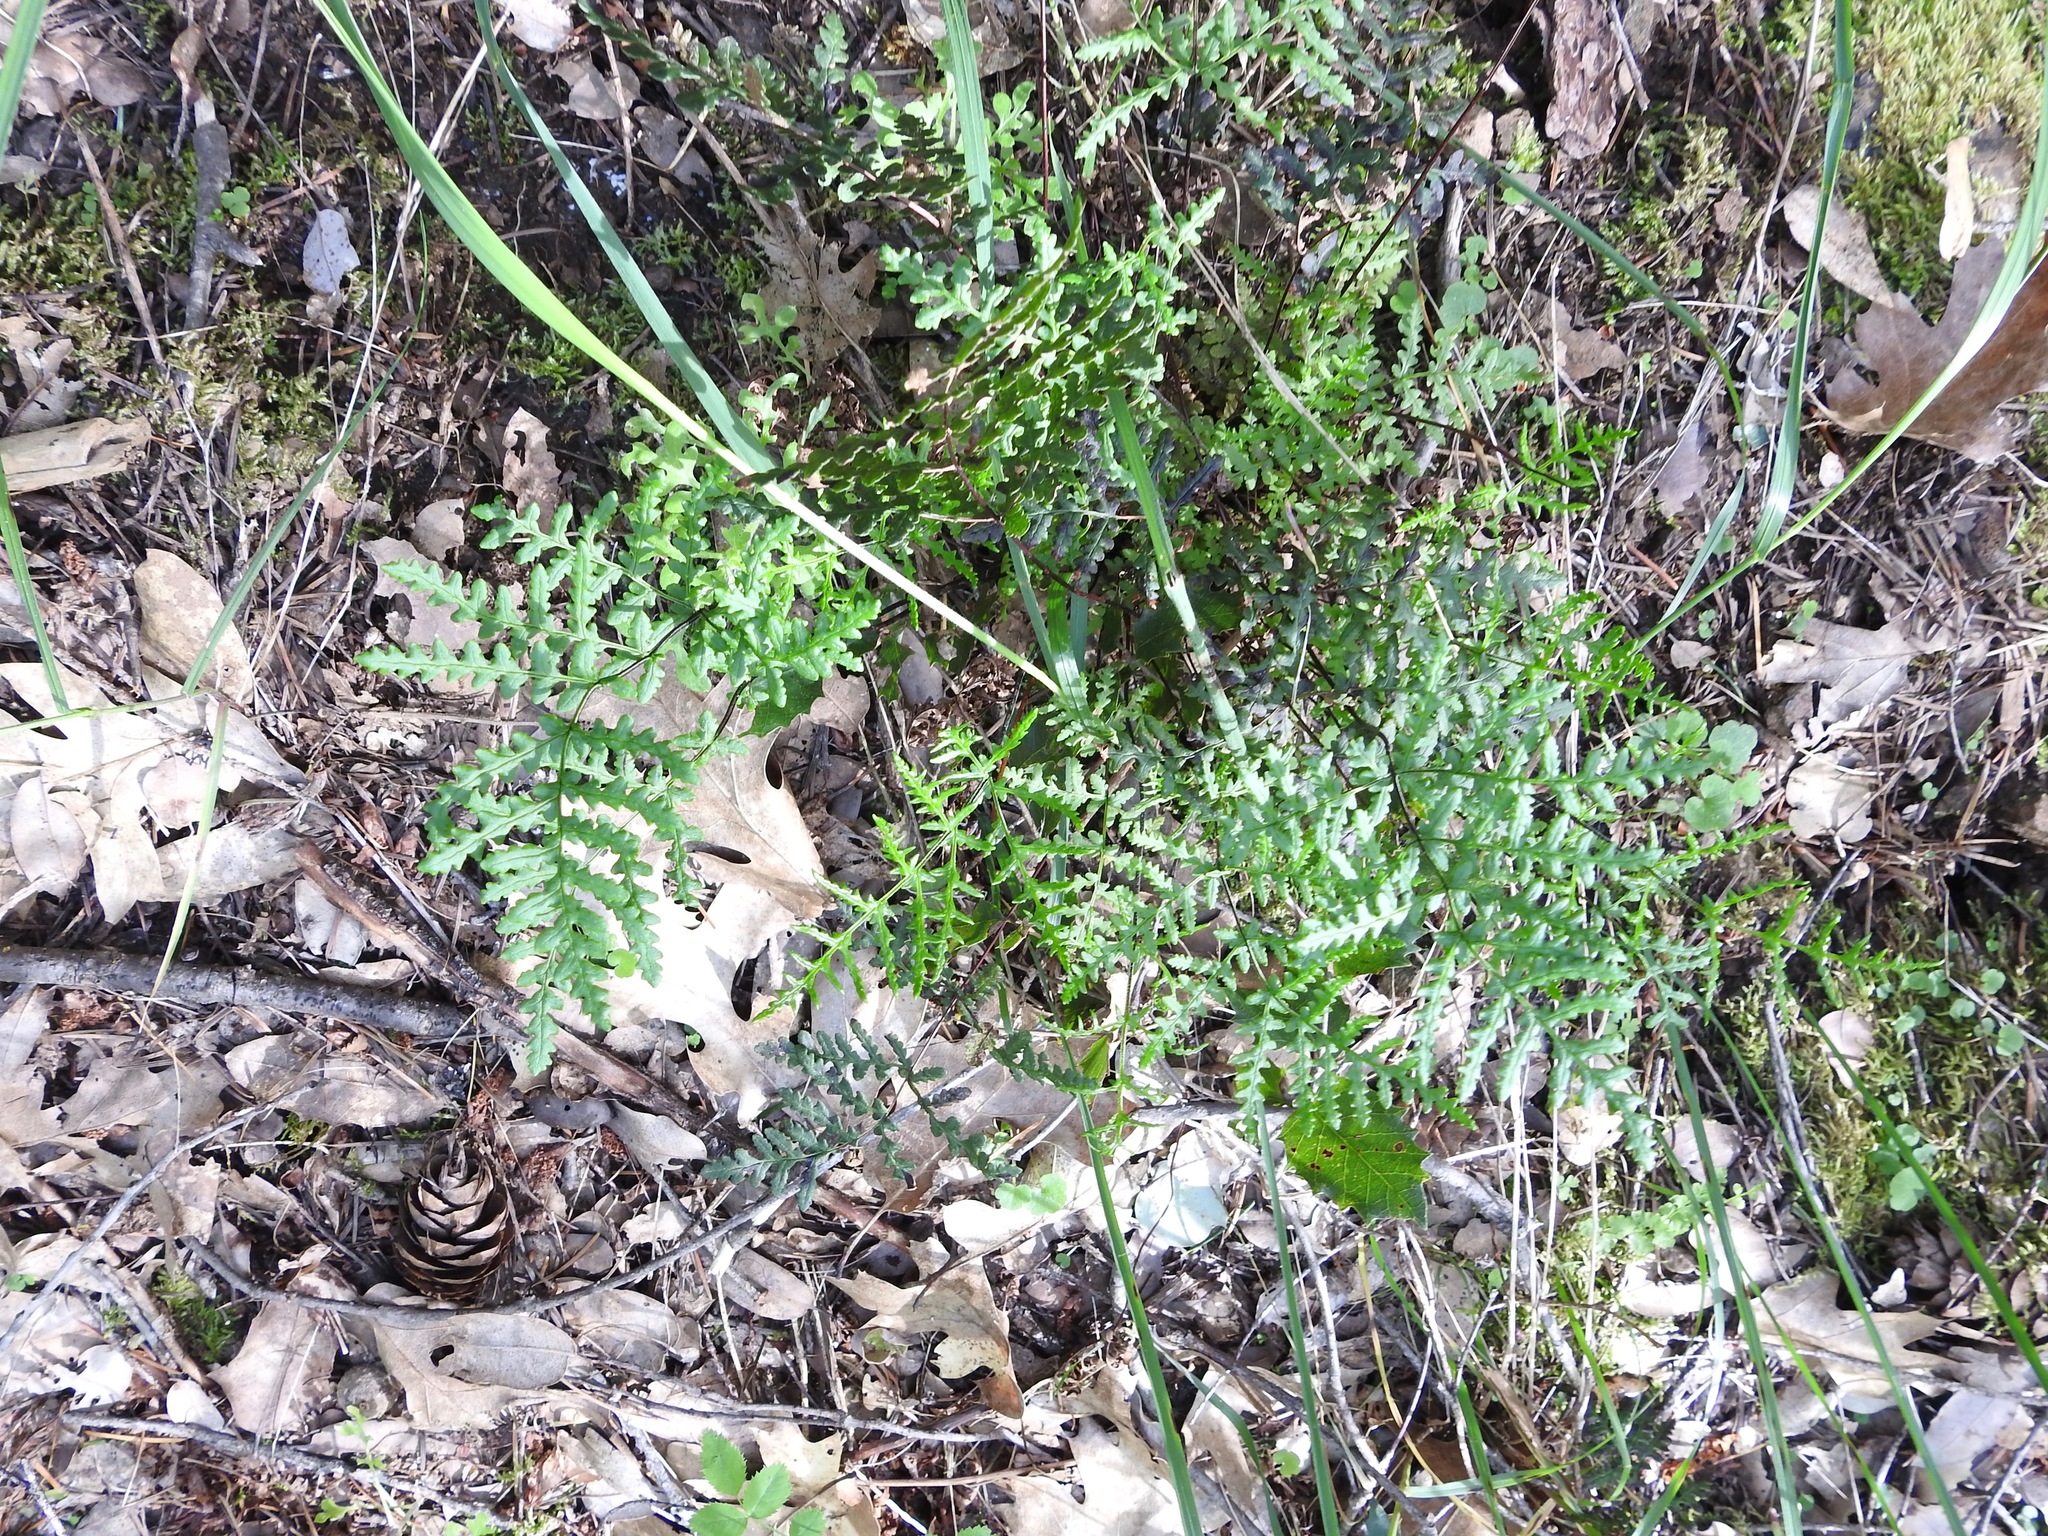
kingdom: Plantae
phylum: Tracheophyta
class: Polypodiopsida
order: Polypodiales
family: Pteridaceae
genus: Pentagramma
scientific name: Pentagramma triangularis
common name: Gold fern
